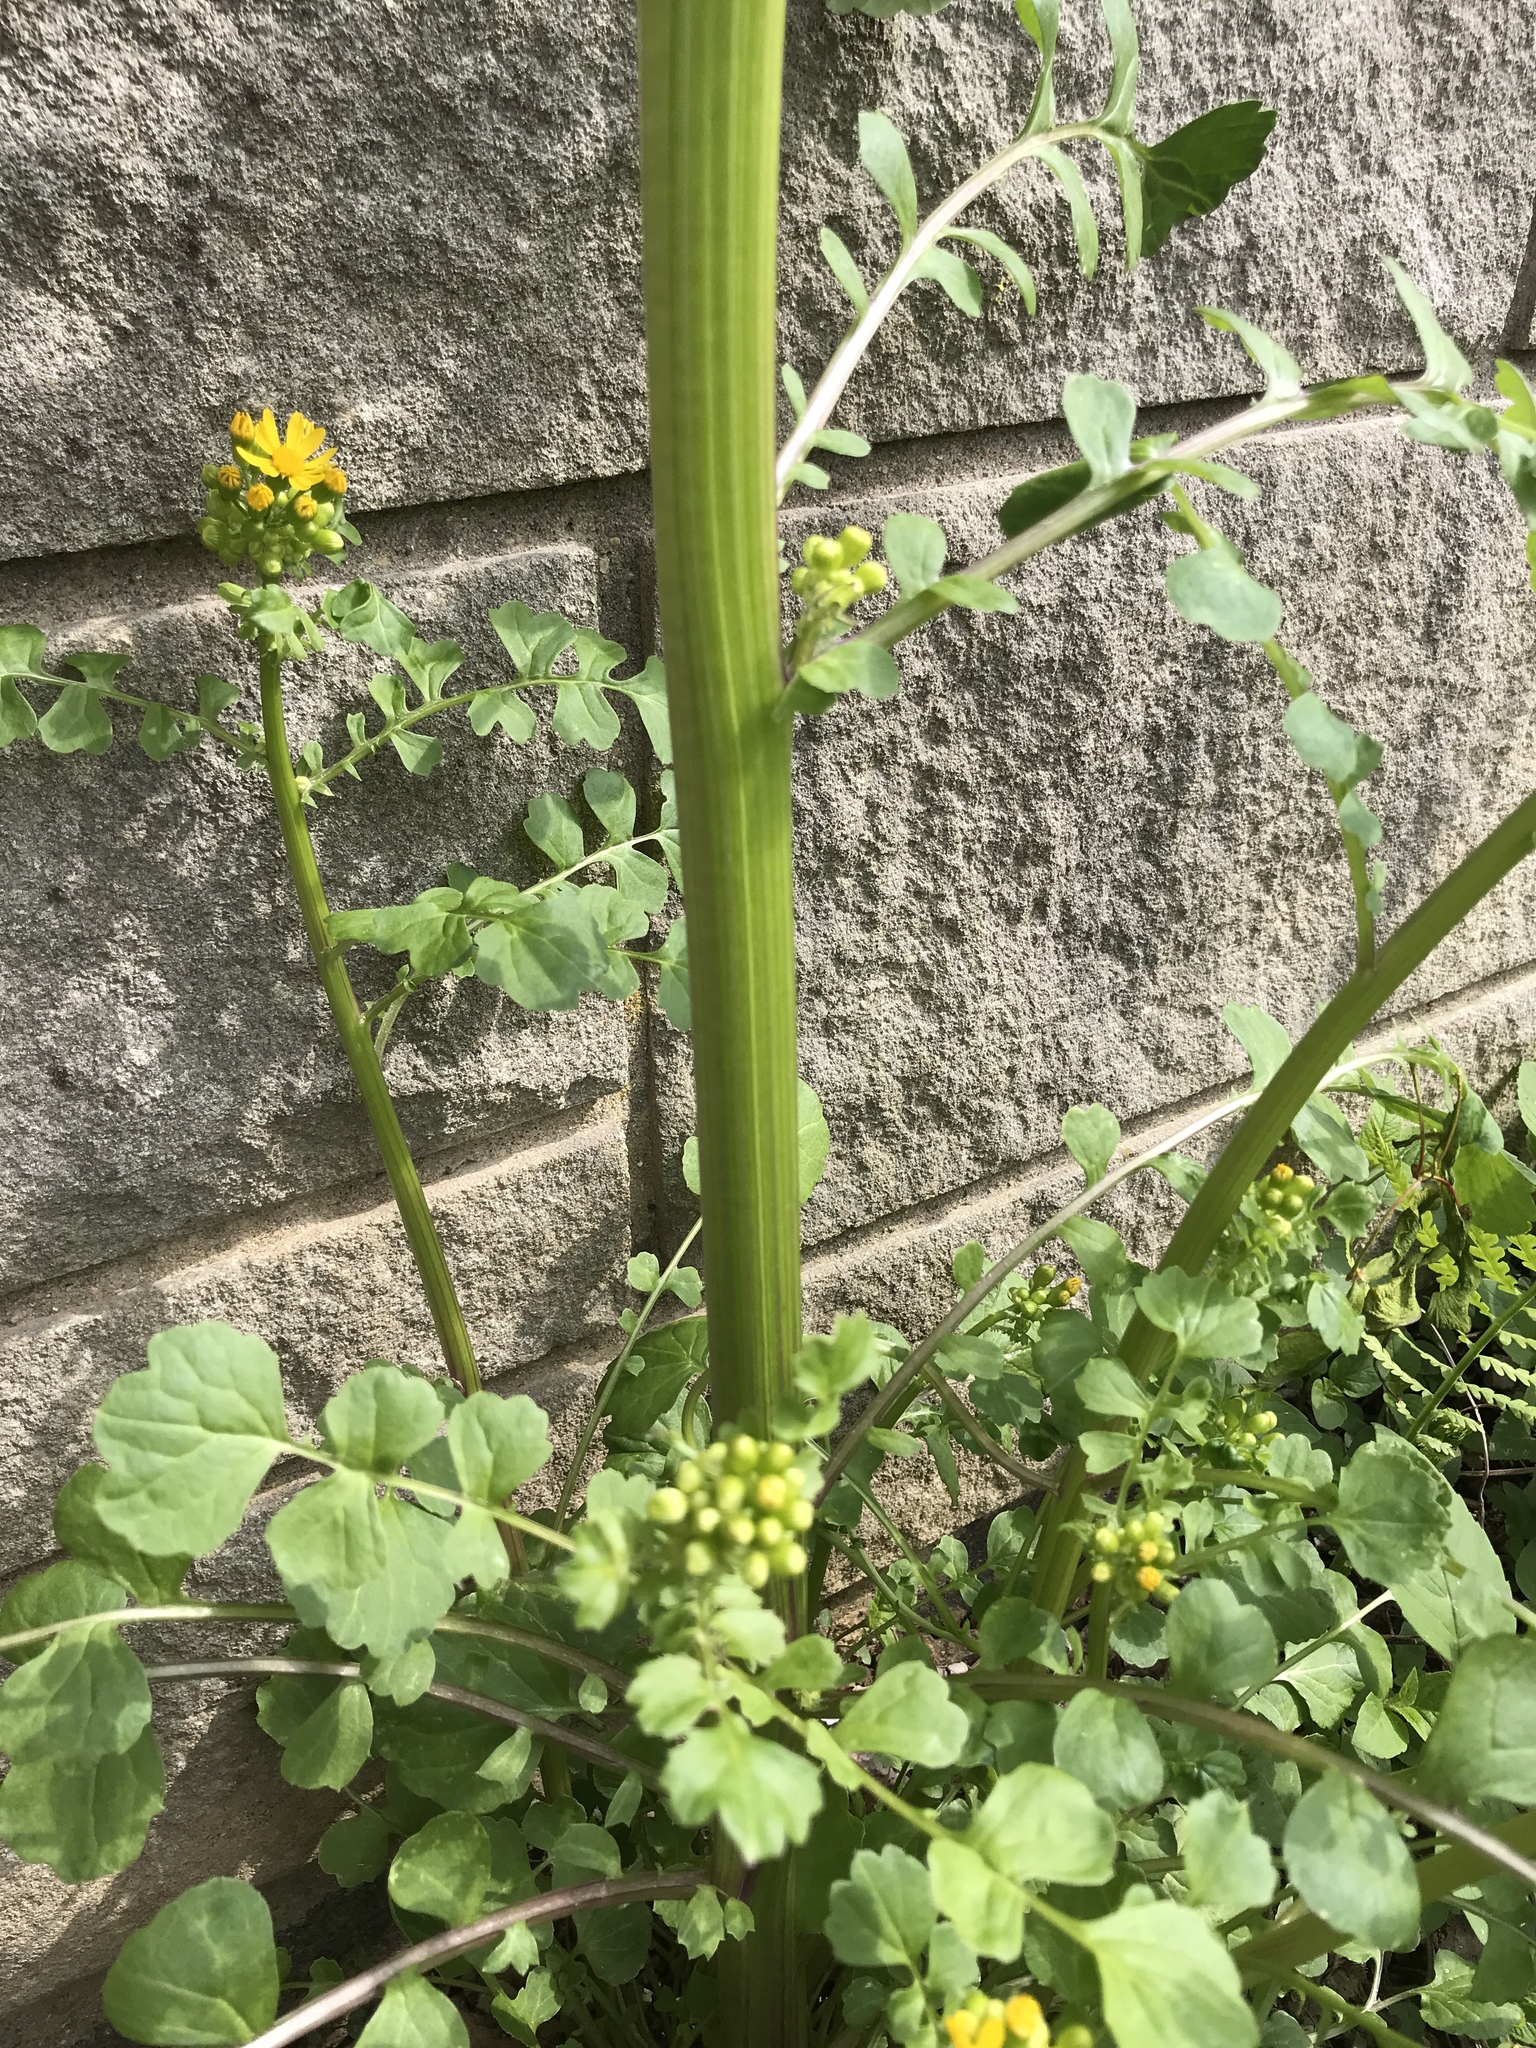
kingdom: Plantae
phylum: Tracheophyta
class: Magnoliopsida
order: Asterales
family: Asteraceae
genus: Packera
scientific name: Packera glabella
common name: Butterweed
